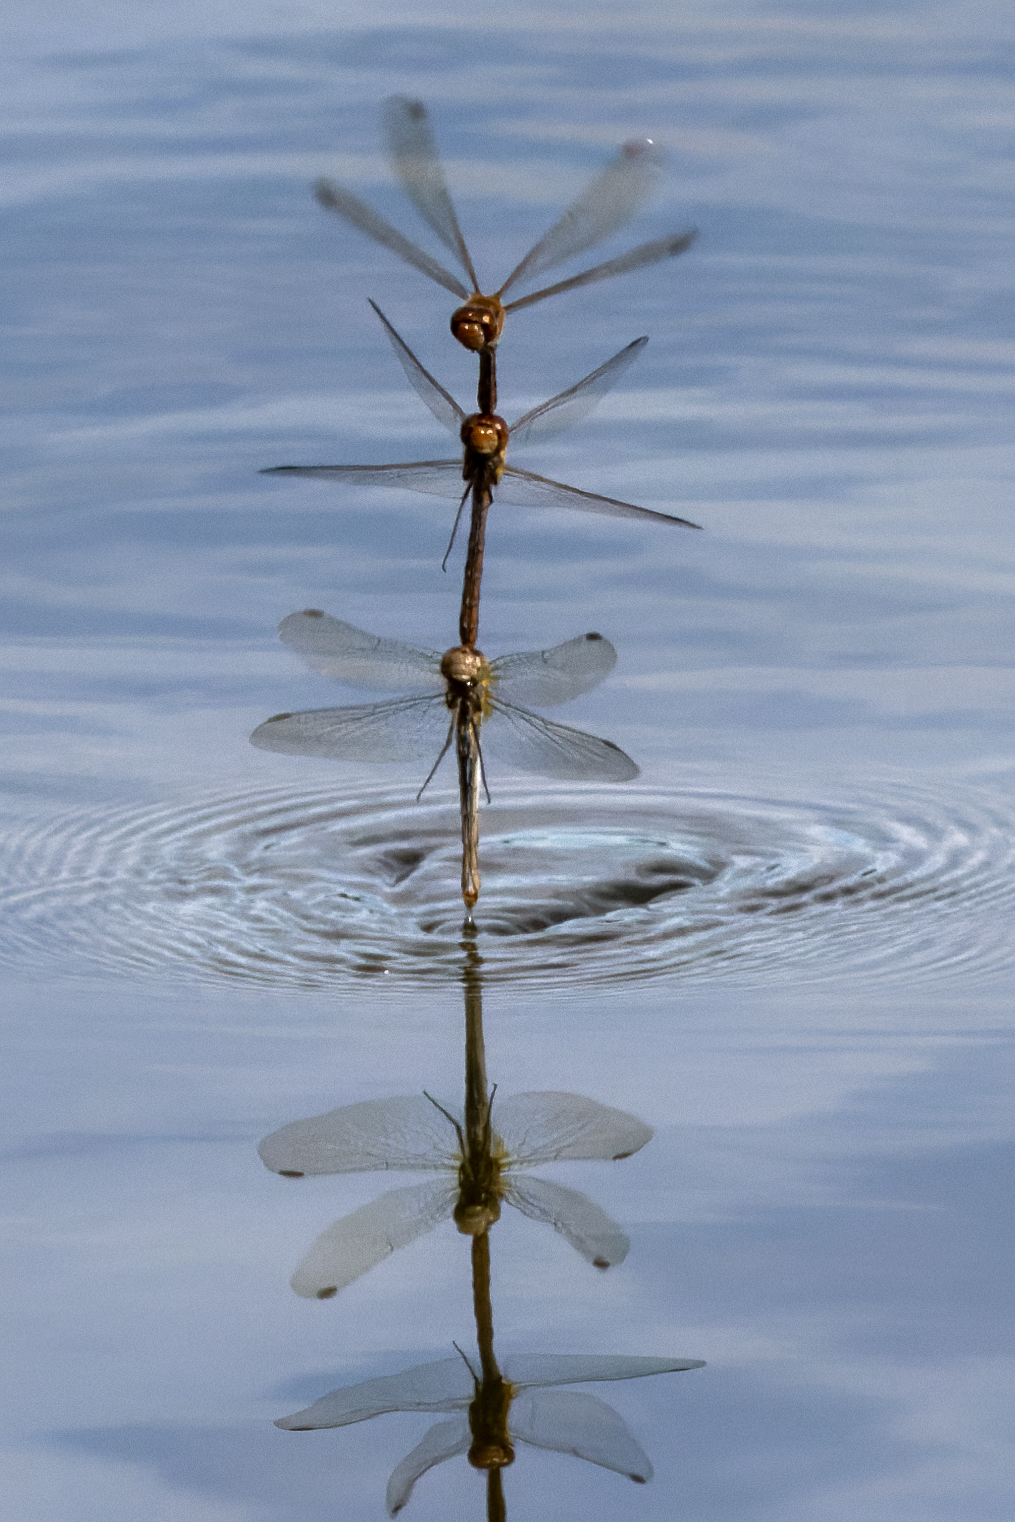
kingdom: Animalia
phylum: Arthropoda
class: Insecta
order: Odonata
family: Libellulidae
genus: Sympetrum
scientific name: Sympetrum striolatum
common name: Common darter
